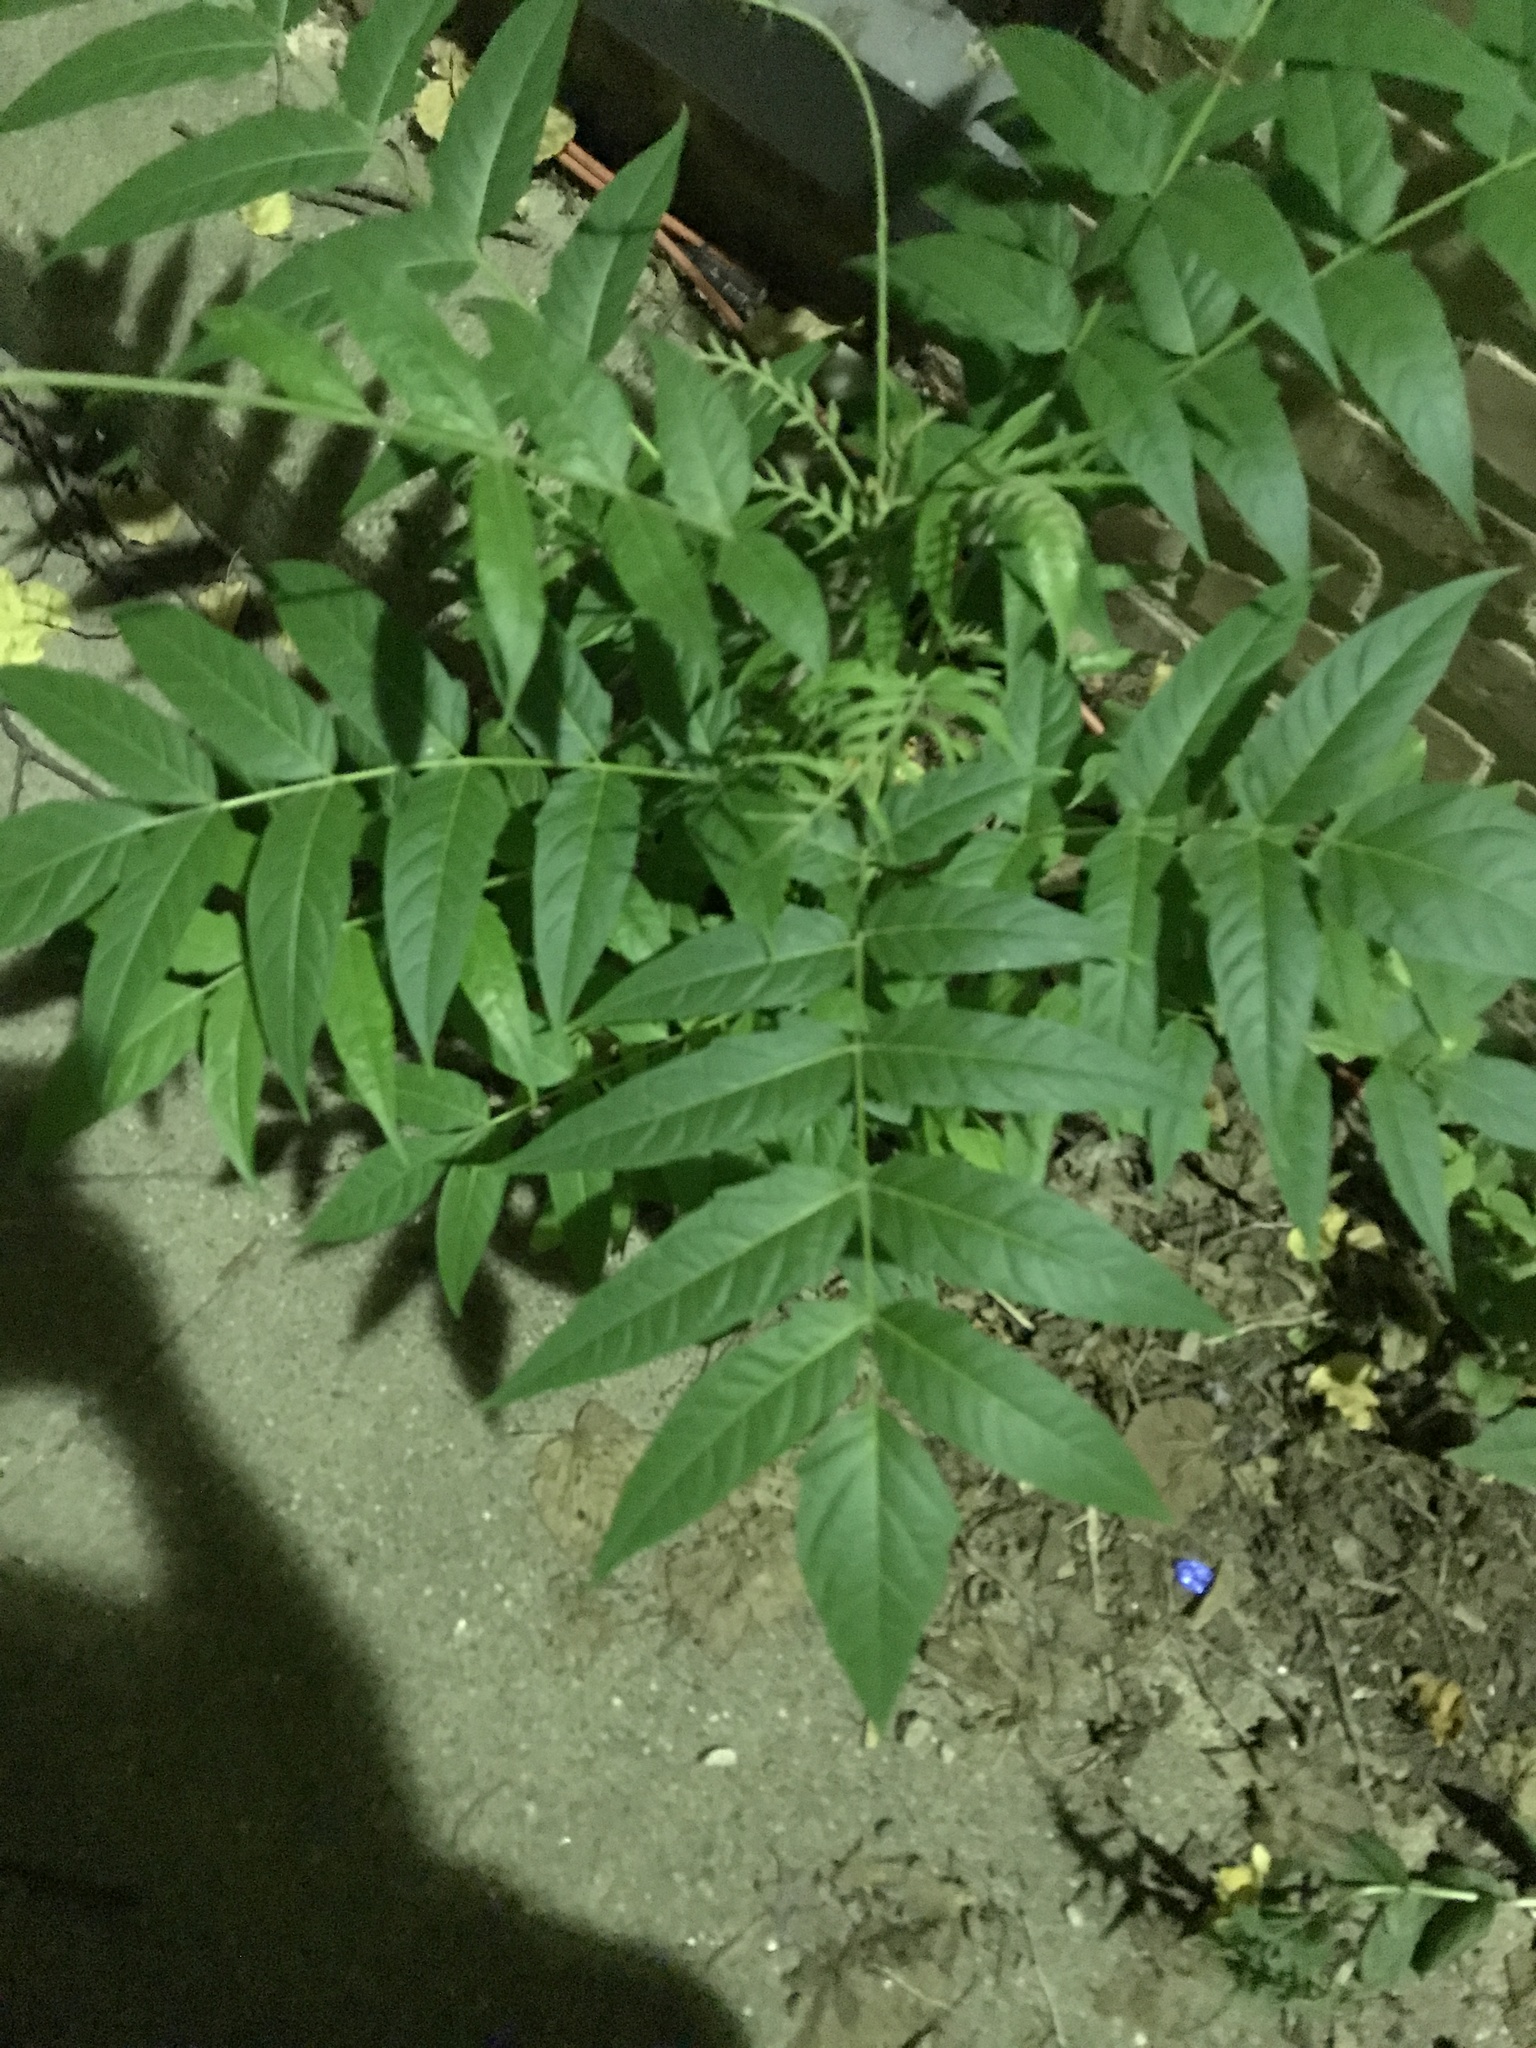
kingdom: Plantae
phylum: Tracheophyta
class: Magnoliopsida
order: Sapindales
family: Simaroubaceae
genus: Ailanthus
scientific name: Ailanthus altissima
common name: Tree-of-heaven
